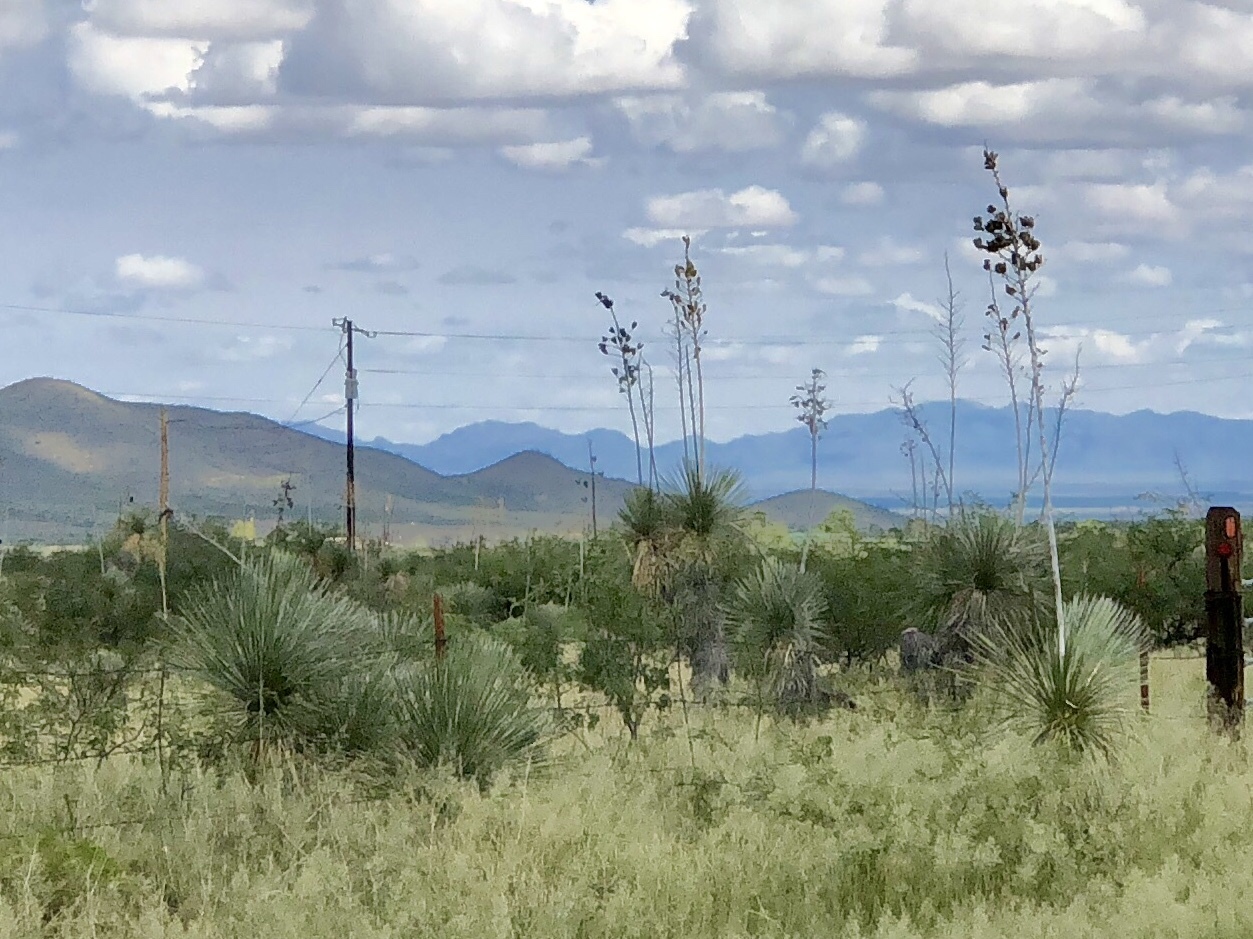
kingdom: Plantae
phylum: Tracheophyta
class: Liliopsida
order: Asparagales
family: Asparagaceae
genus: Yucca
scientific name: Yucca elata
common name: Palmella
